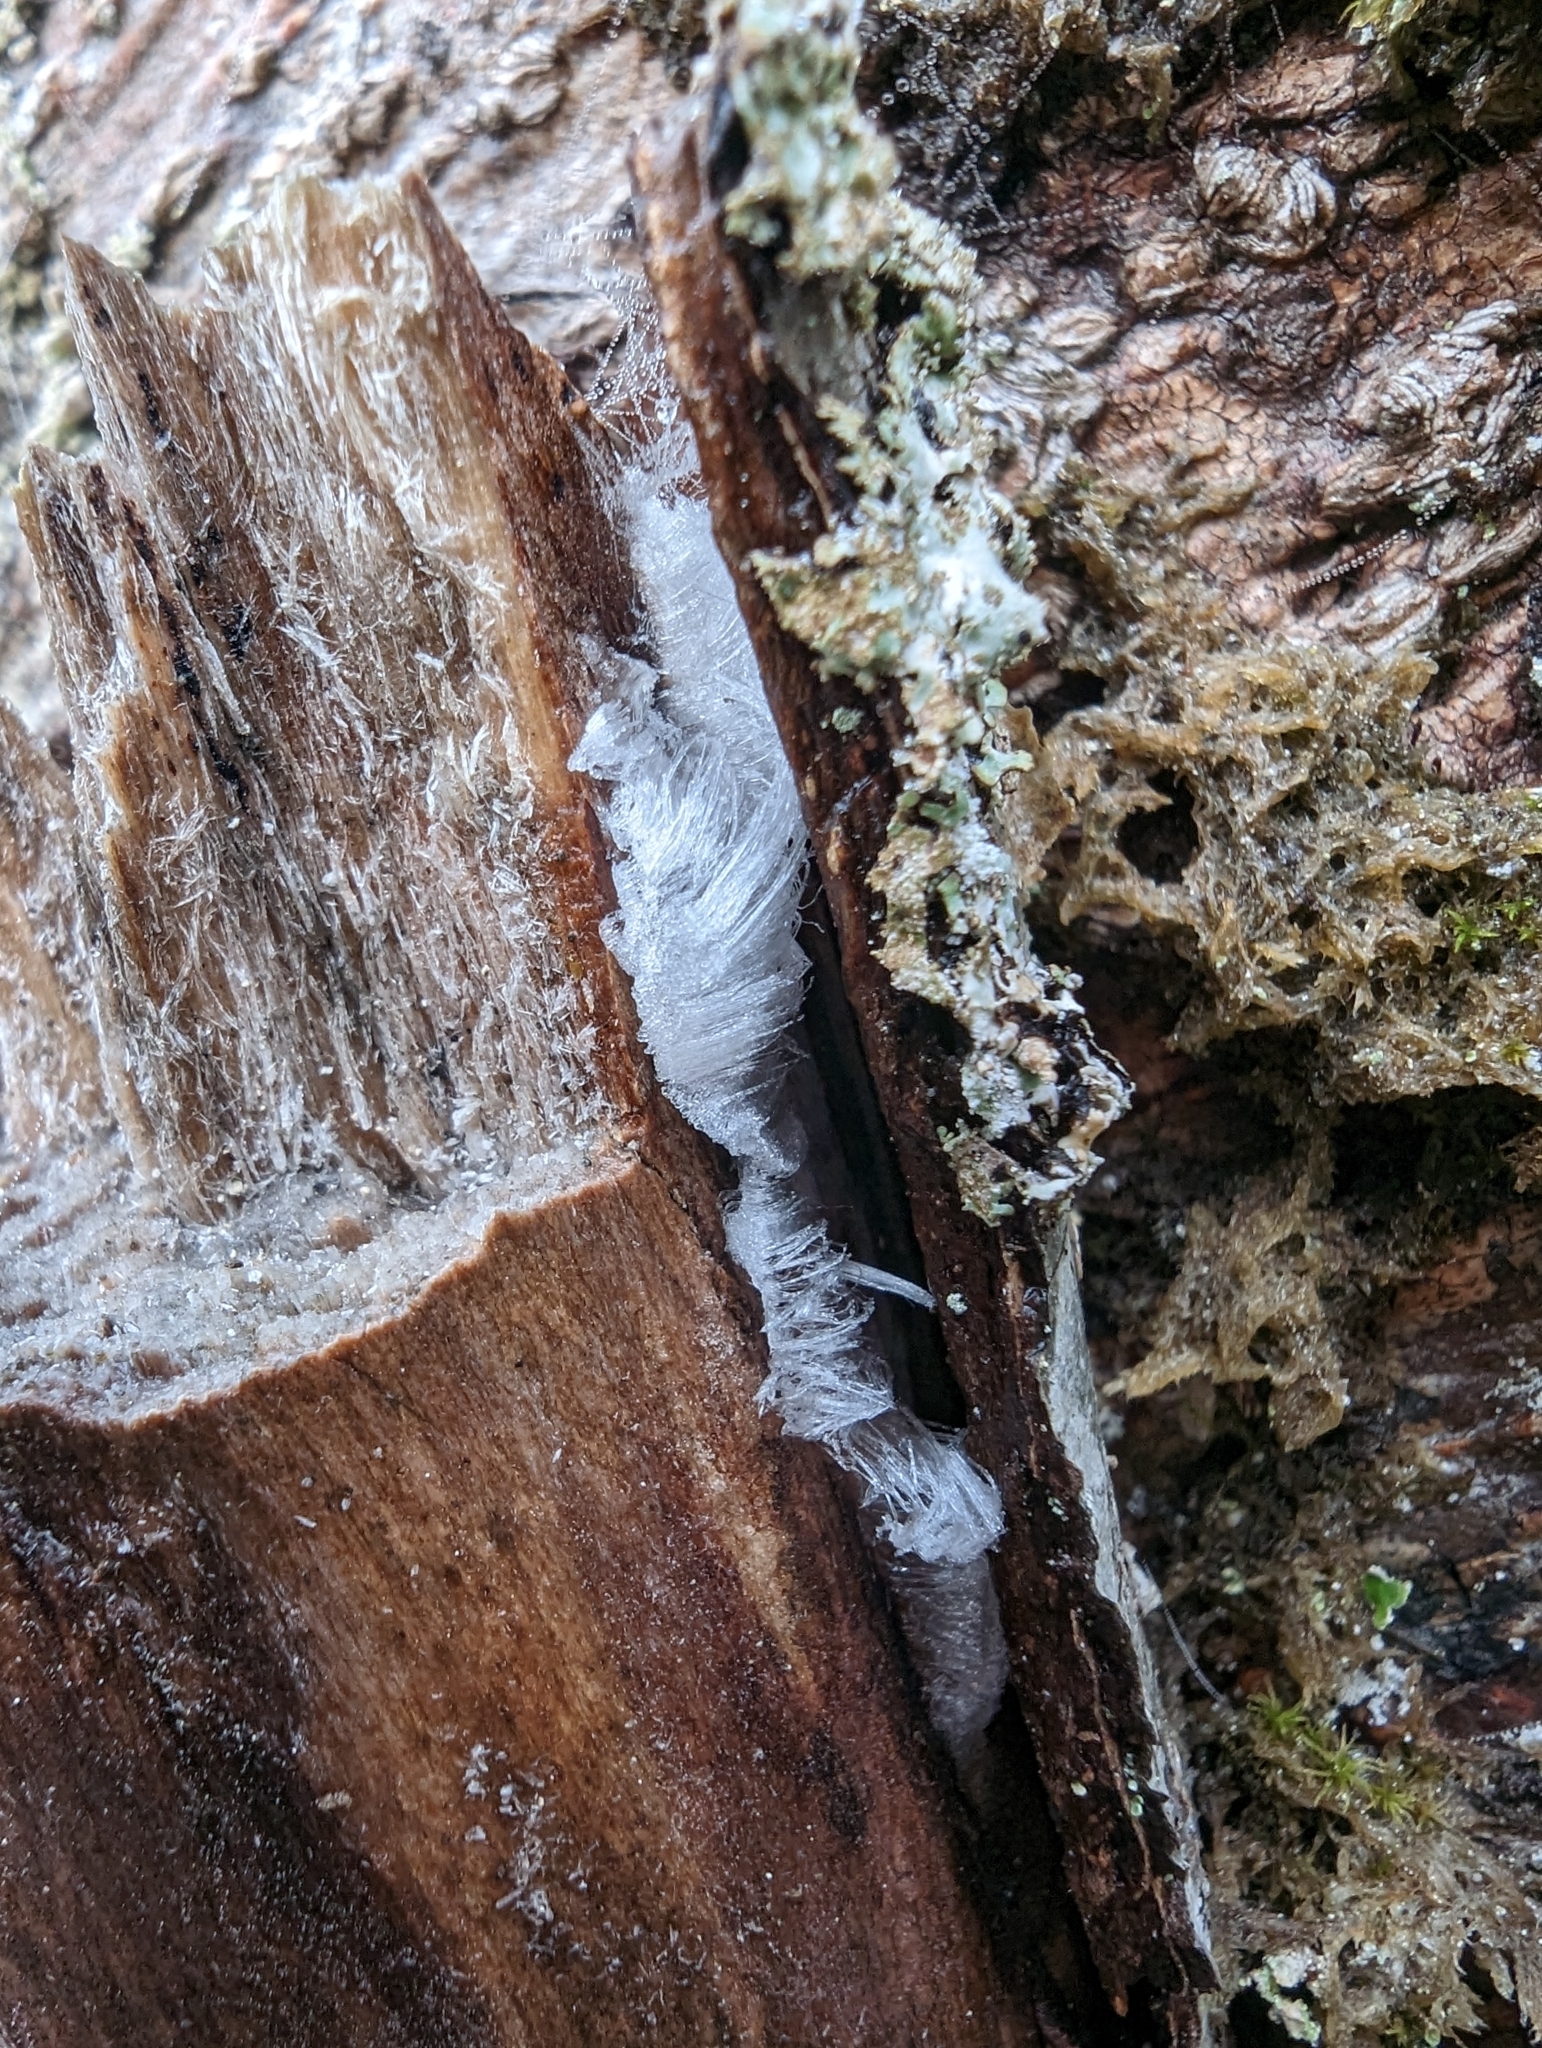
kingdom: Fungi
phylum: Basidiomycota
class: Agaricomycetes
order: Auriculariales
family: Auriculariaceae
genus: Exidiopsis
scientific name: Exidiopsis effusa
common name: Hair ice crust
